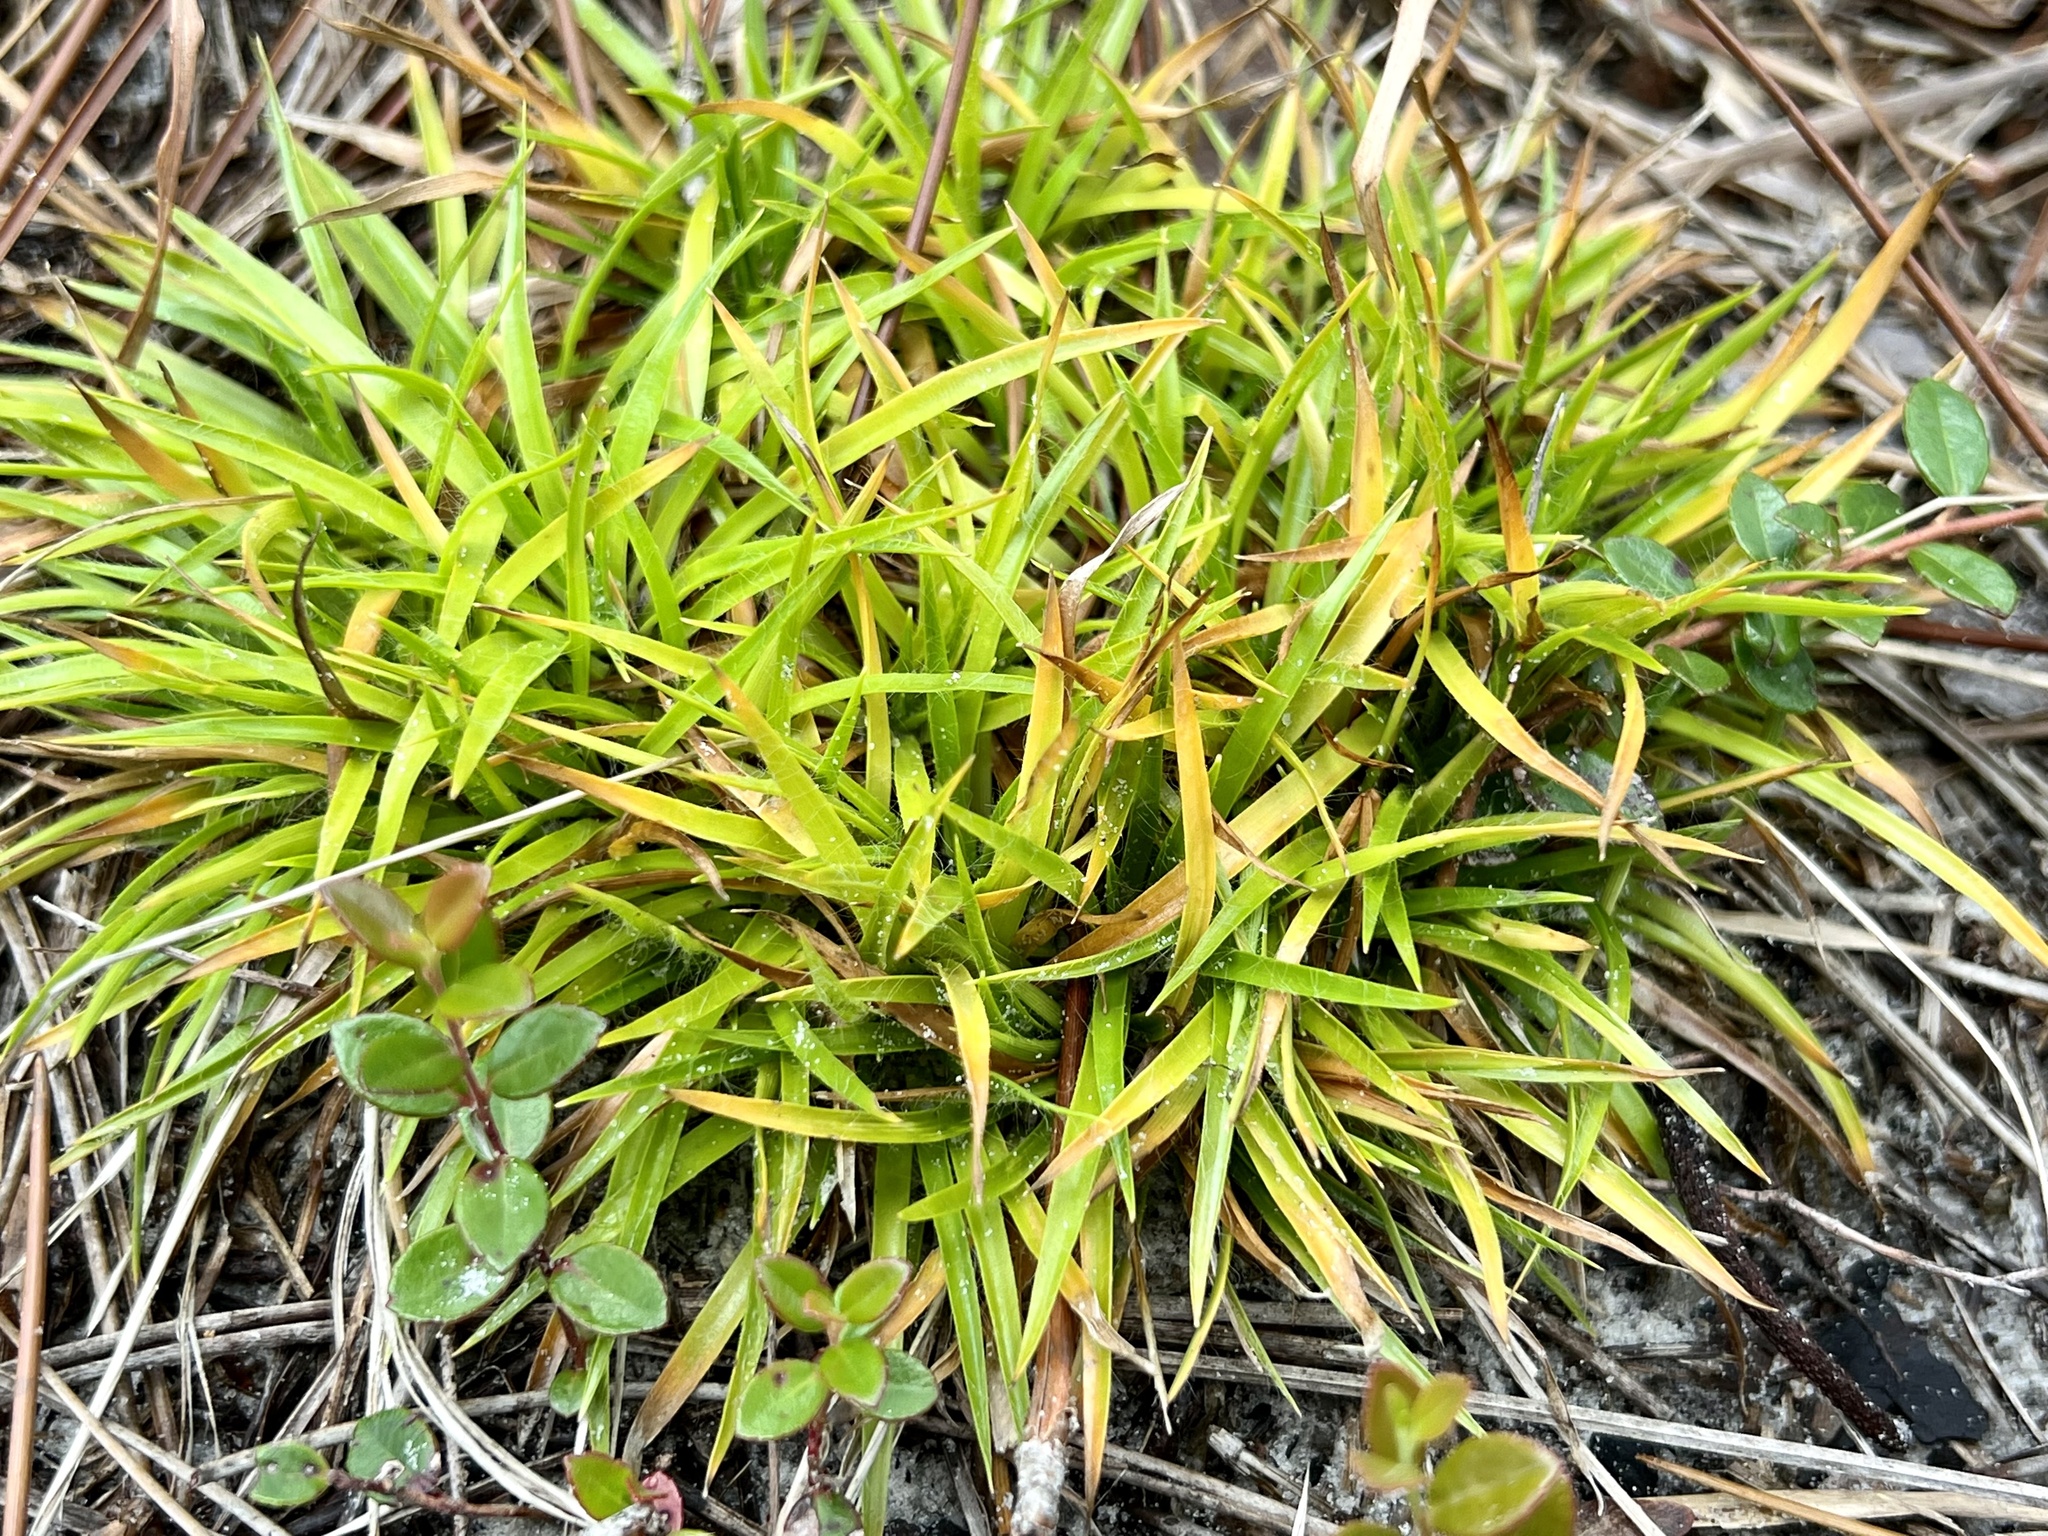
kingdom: Plantae
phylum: Tracheophyta
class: Liliopsida
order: Poales
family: Eriocaulaceae
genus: Paepalanthus
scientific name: Paepalanthus anceps
